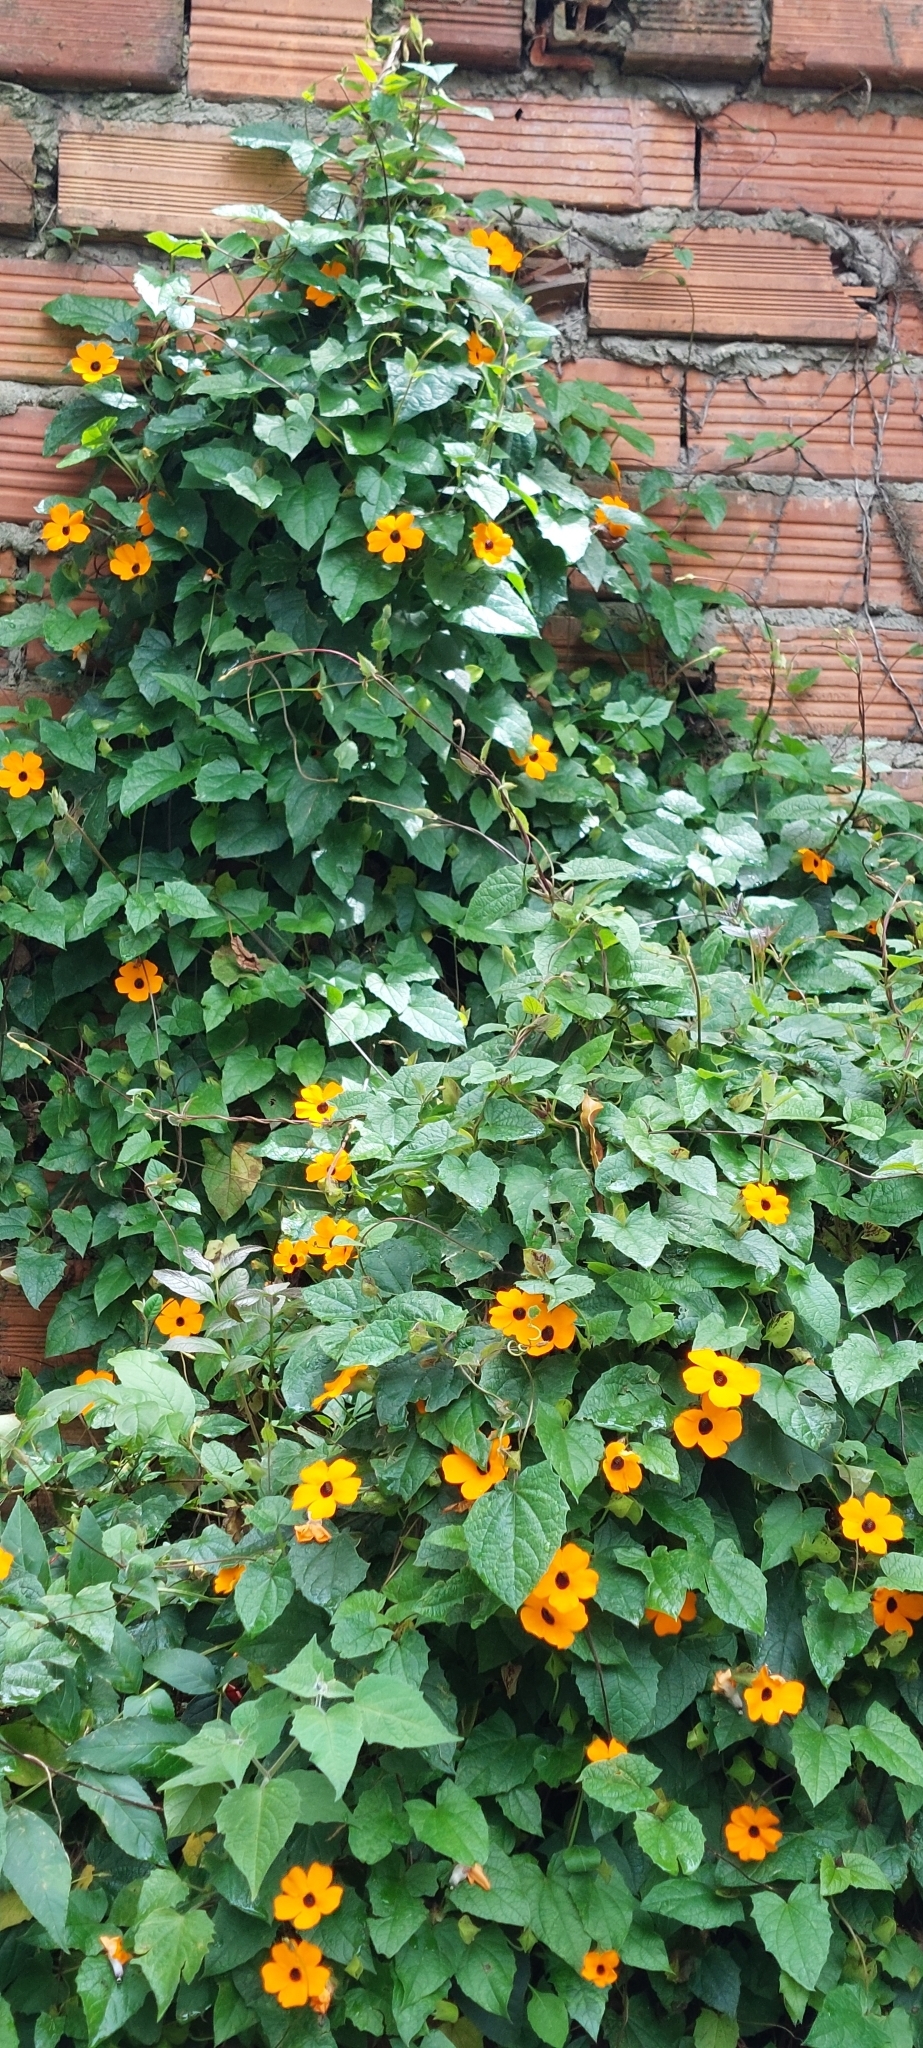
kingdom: Plantae
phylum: Tracheophyta
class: Magnoliopsida
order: Lamiales
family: Acanthaceae
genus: Thunbergia
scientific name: Thunbergia alata
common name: Blackeyed susan vine
